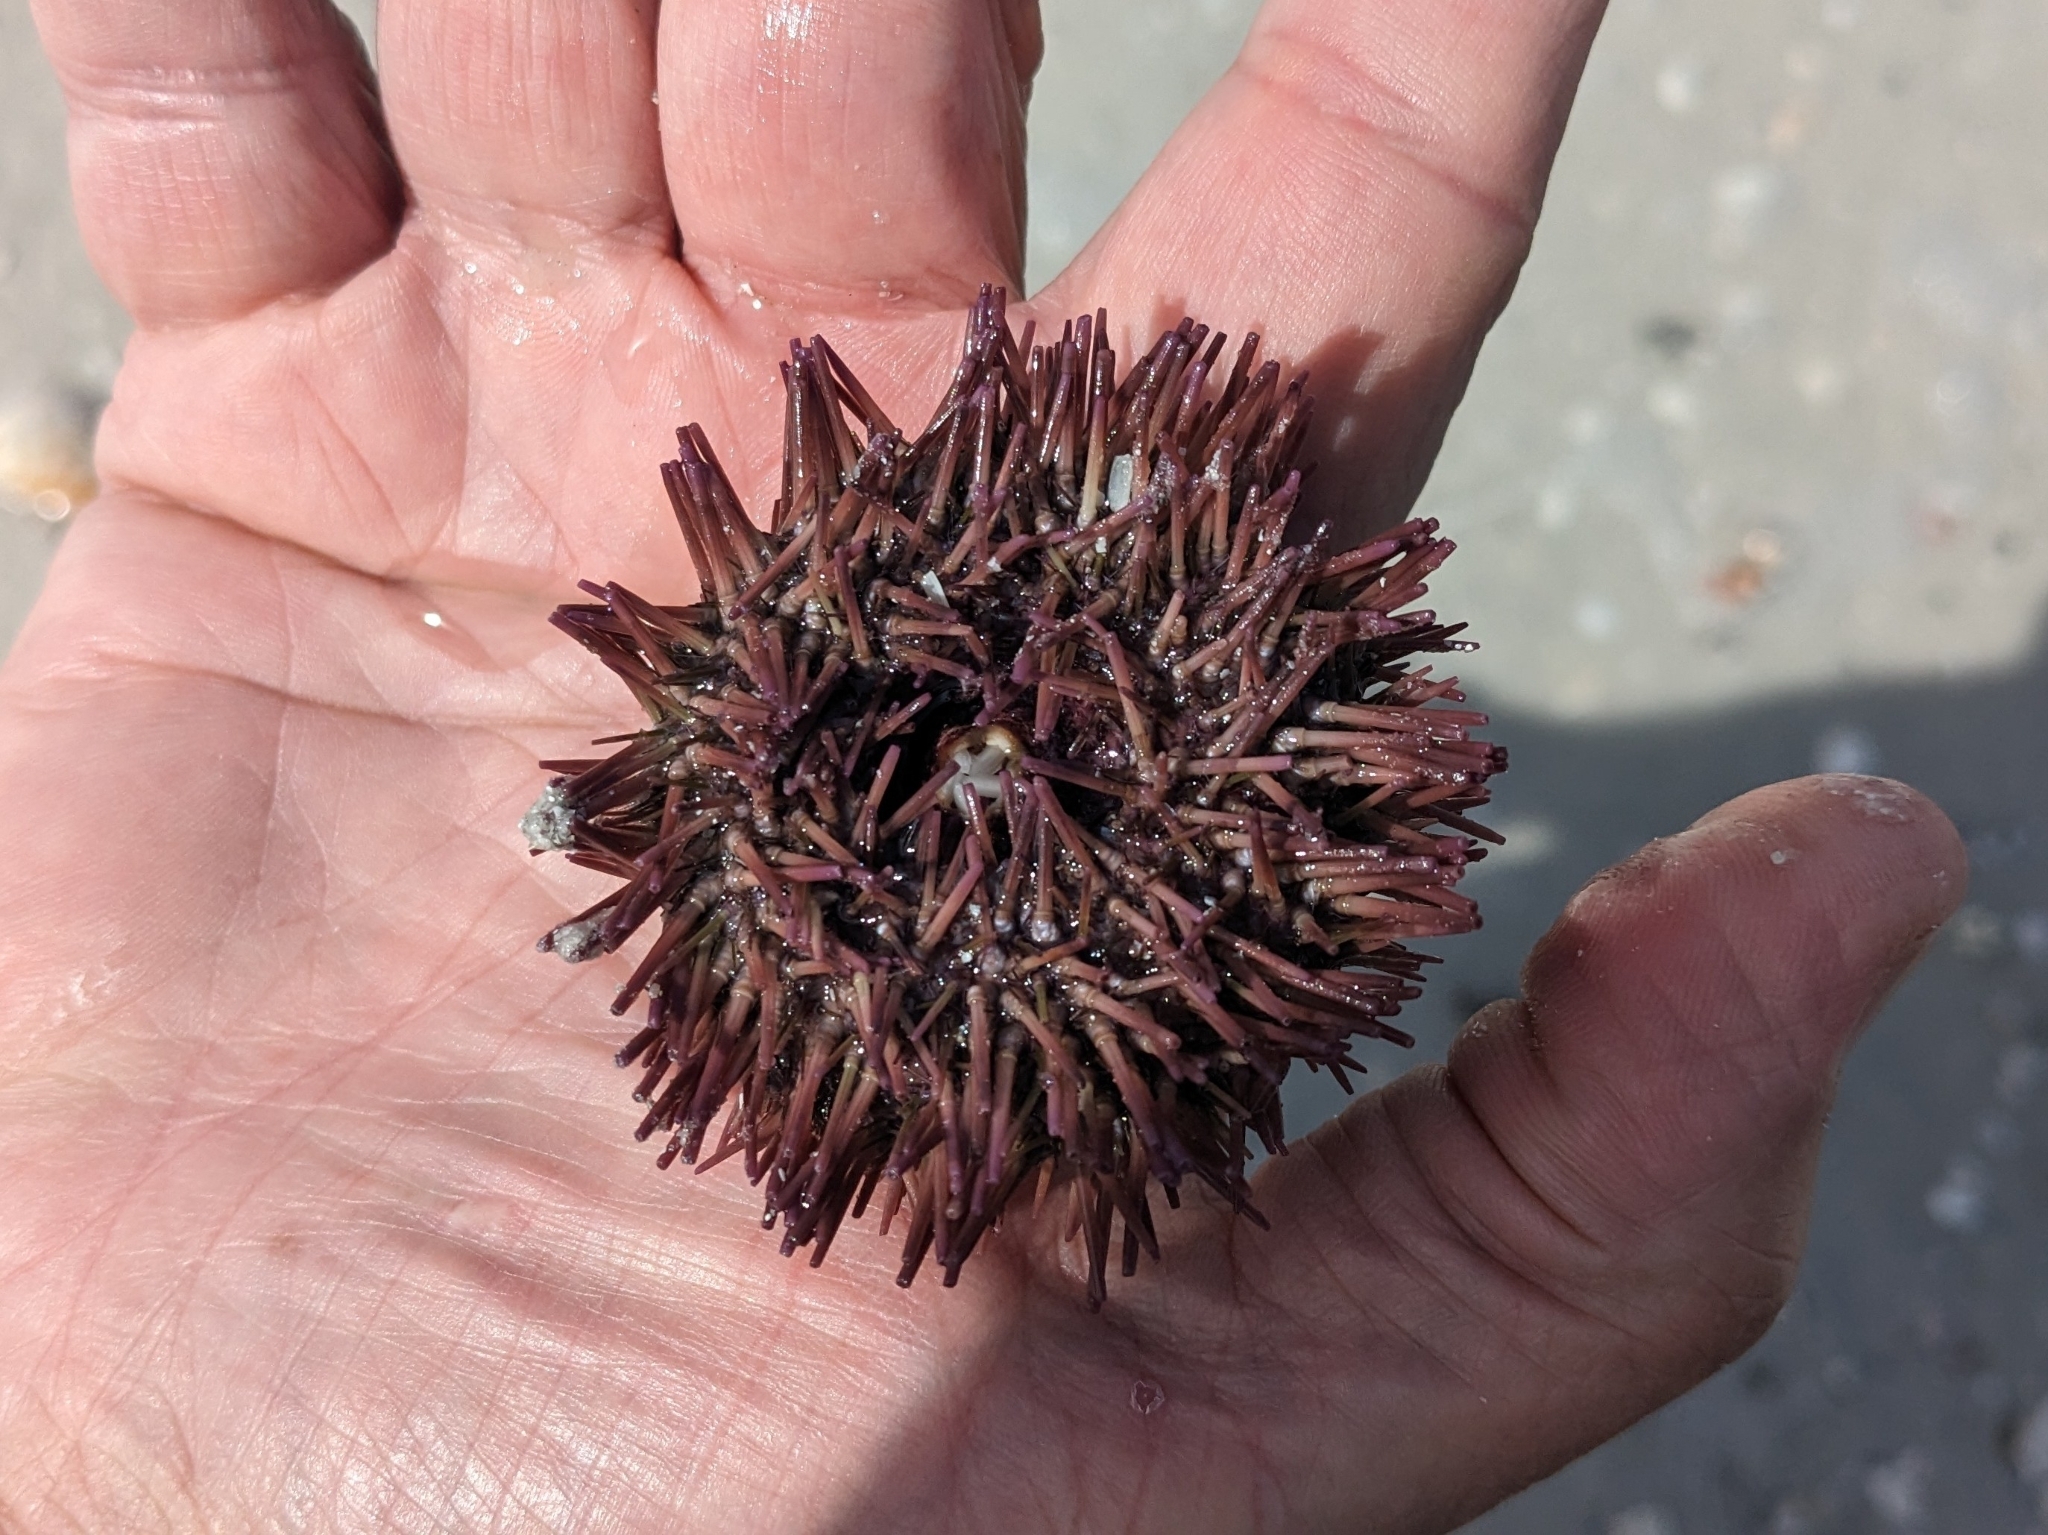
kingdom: Animalia
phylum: Echinodermata
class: Echinoidea
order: Camarodonta
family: Toxopneustidae
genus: Lytechinus
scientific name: Lytechinus variegatus
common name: Variegated urchin
